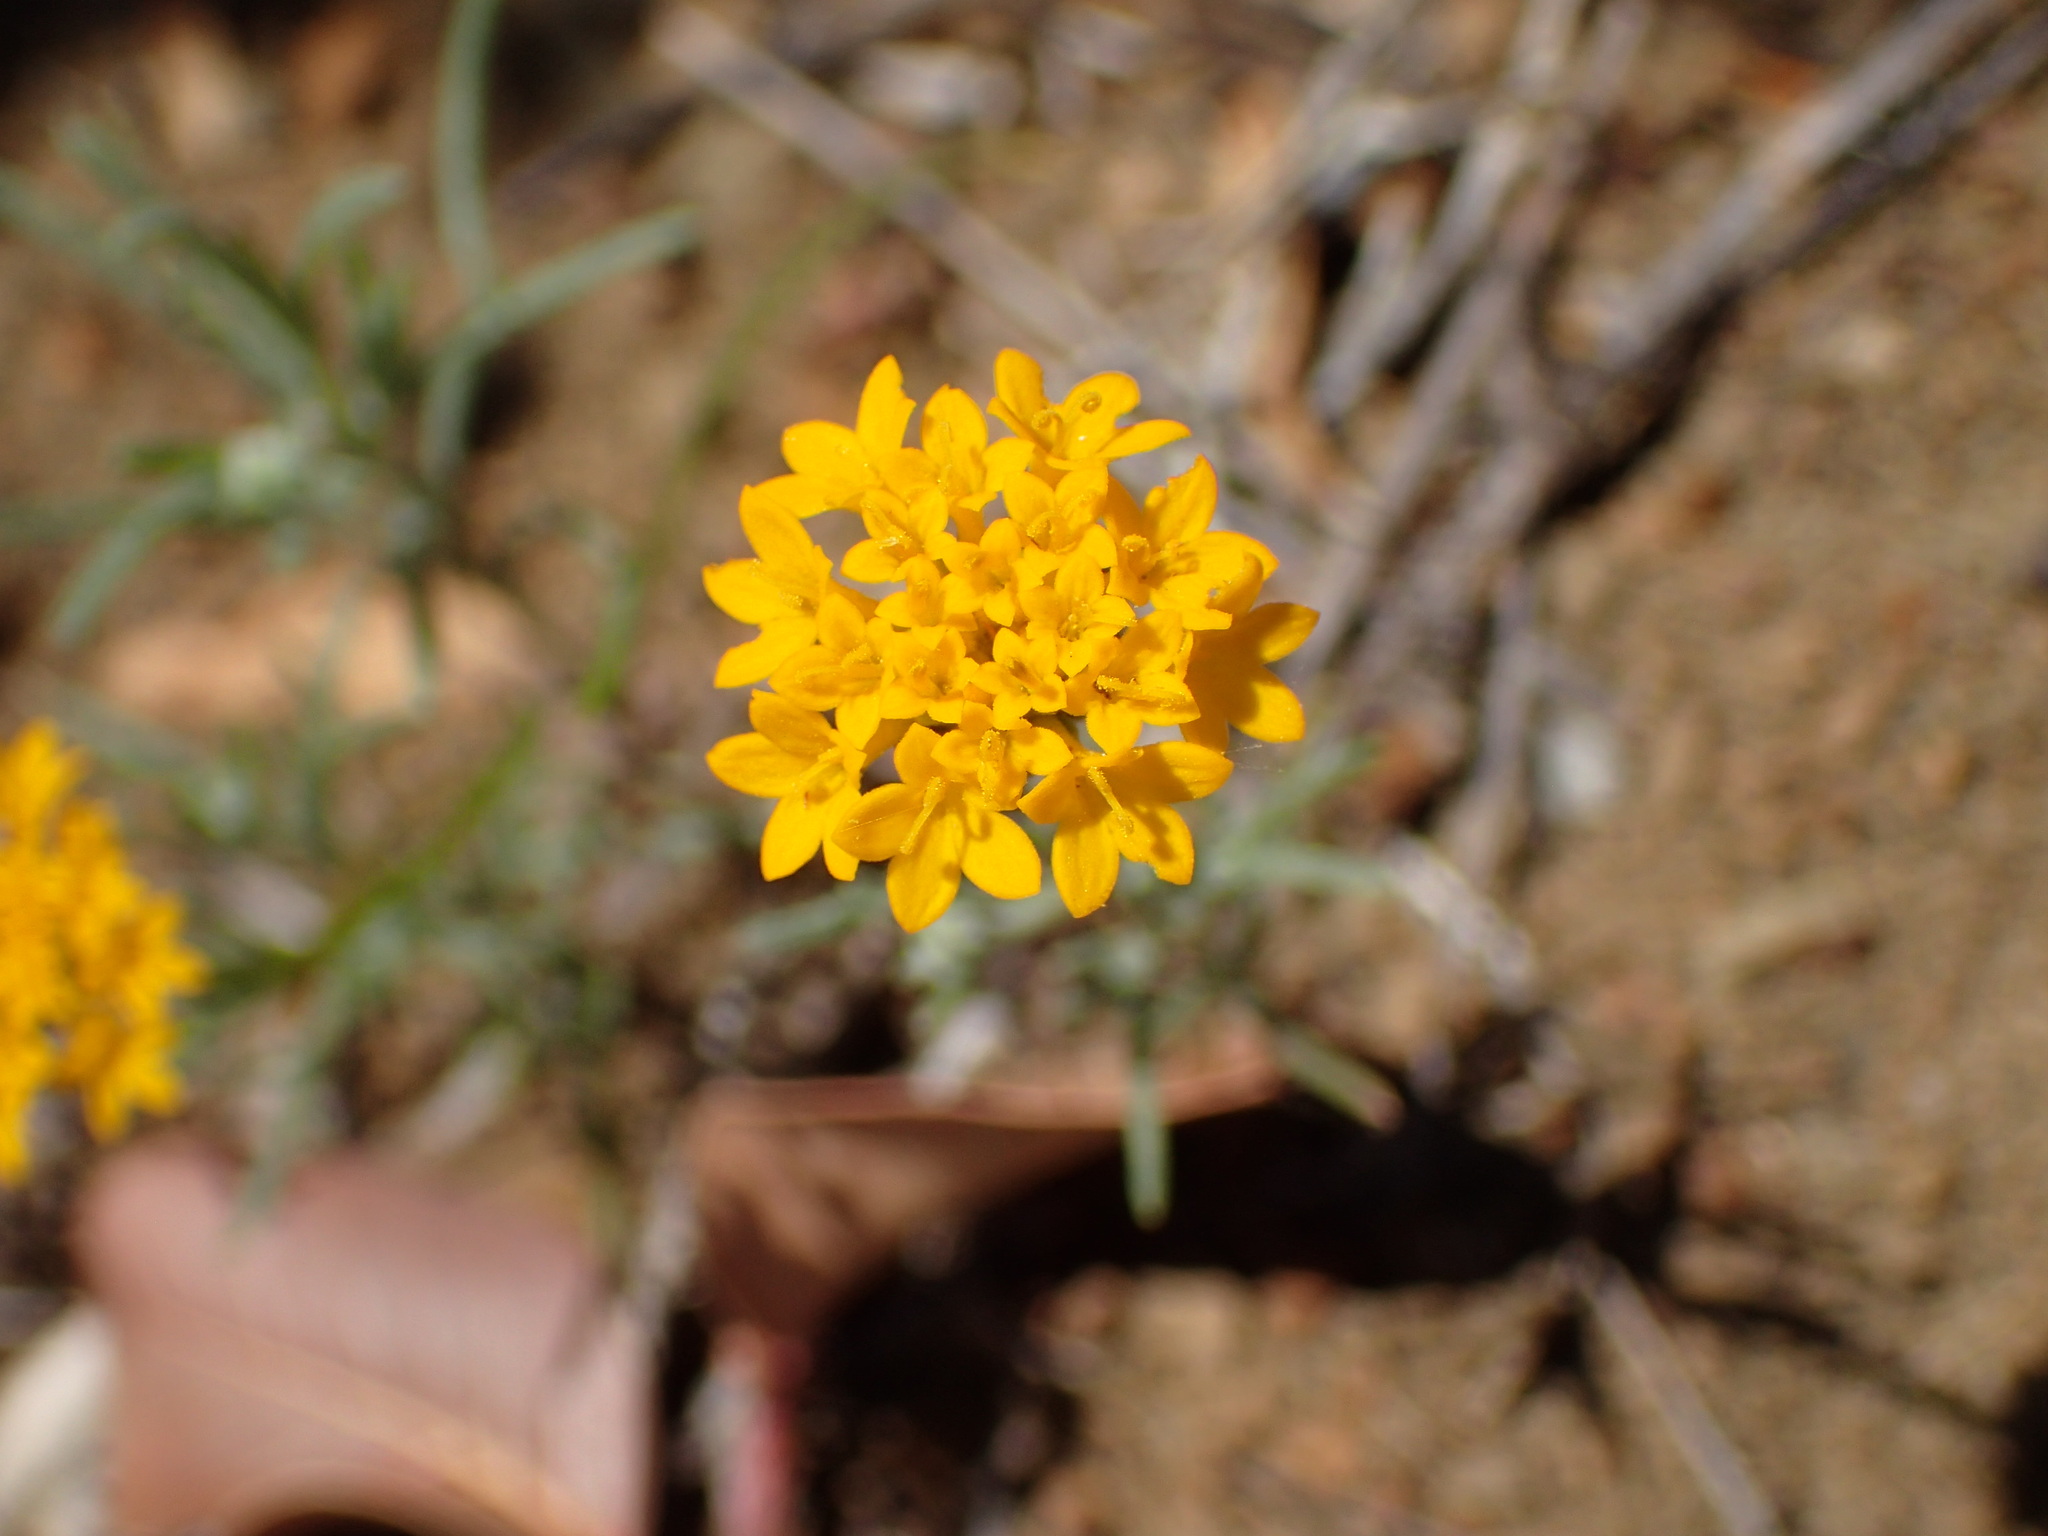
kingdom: Plantae
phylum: Tracheophyta
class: Magnoliopsida
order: Asterales
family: Asteraceae
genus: Chaenactis
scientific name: Chaenactis glabriuscula
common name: Yellow pincushion
